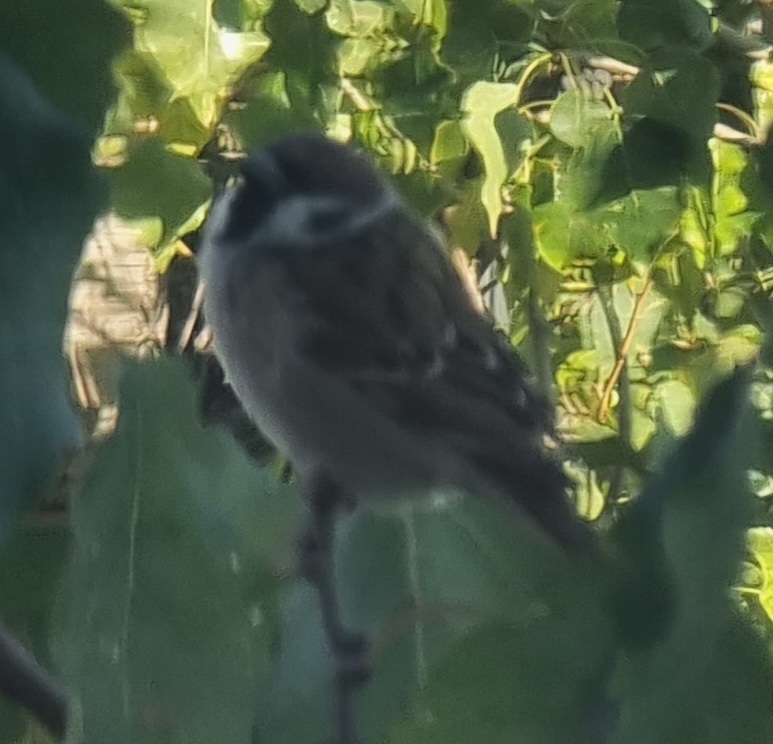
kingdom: Animalia
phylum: Chordata
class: Aves
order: Passeriformes
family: Passeridae
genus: Passer
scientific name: Passer montanus
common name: Eurasian tree sparrow
